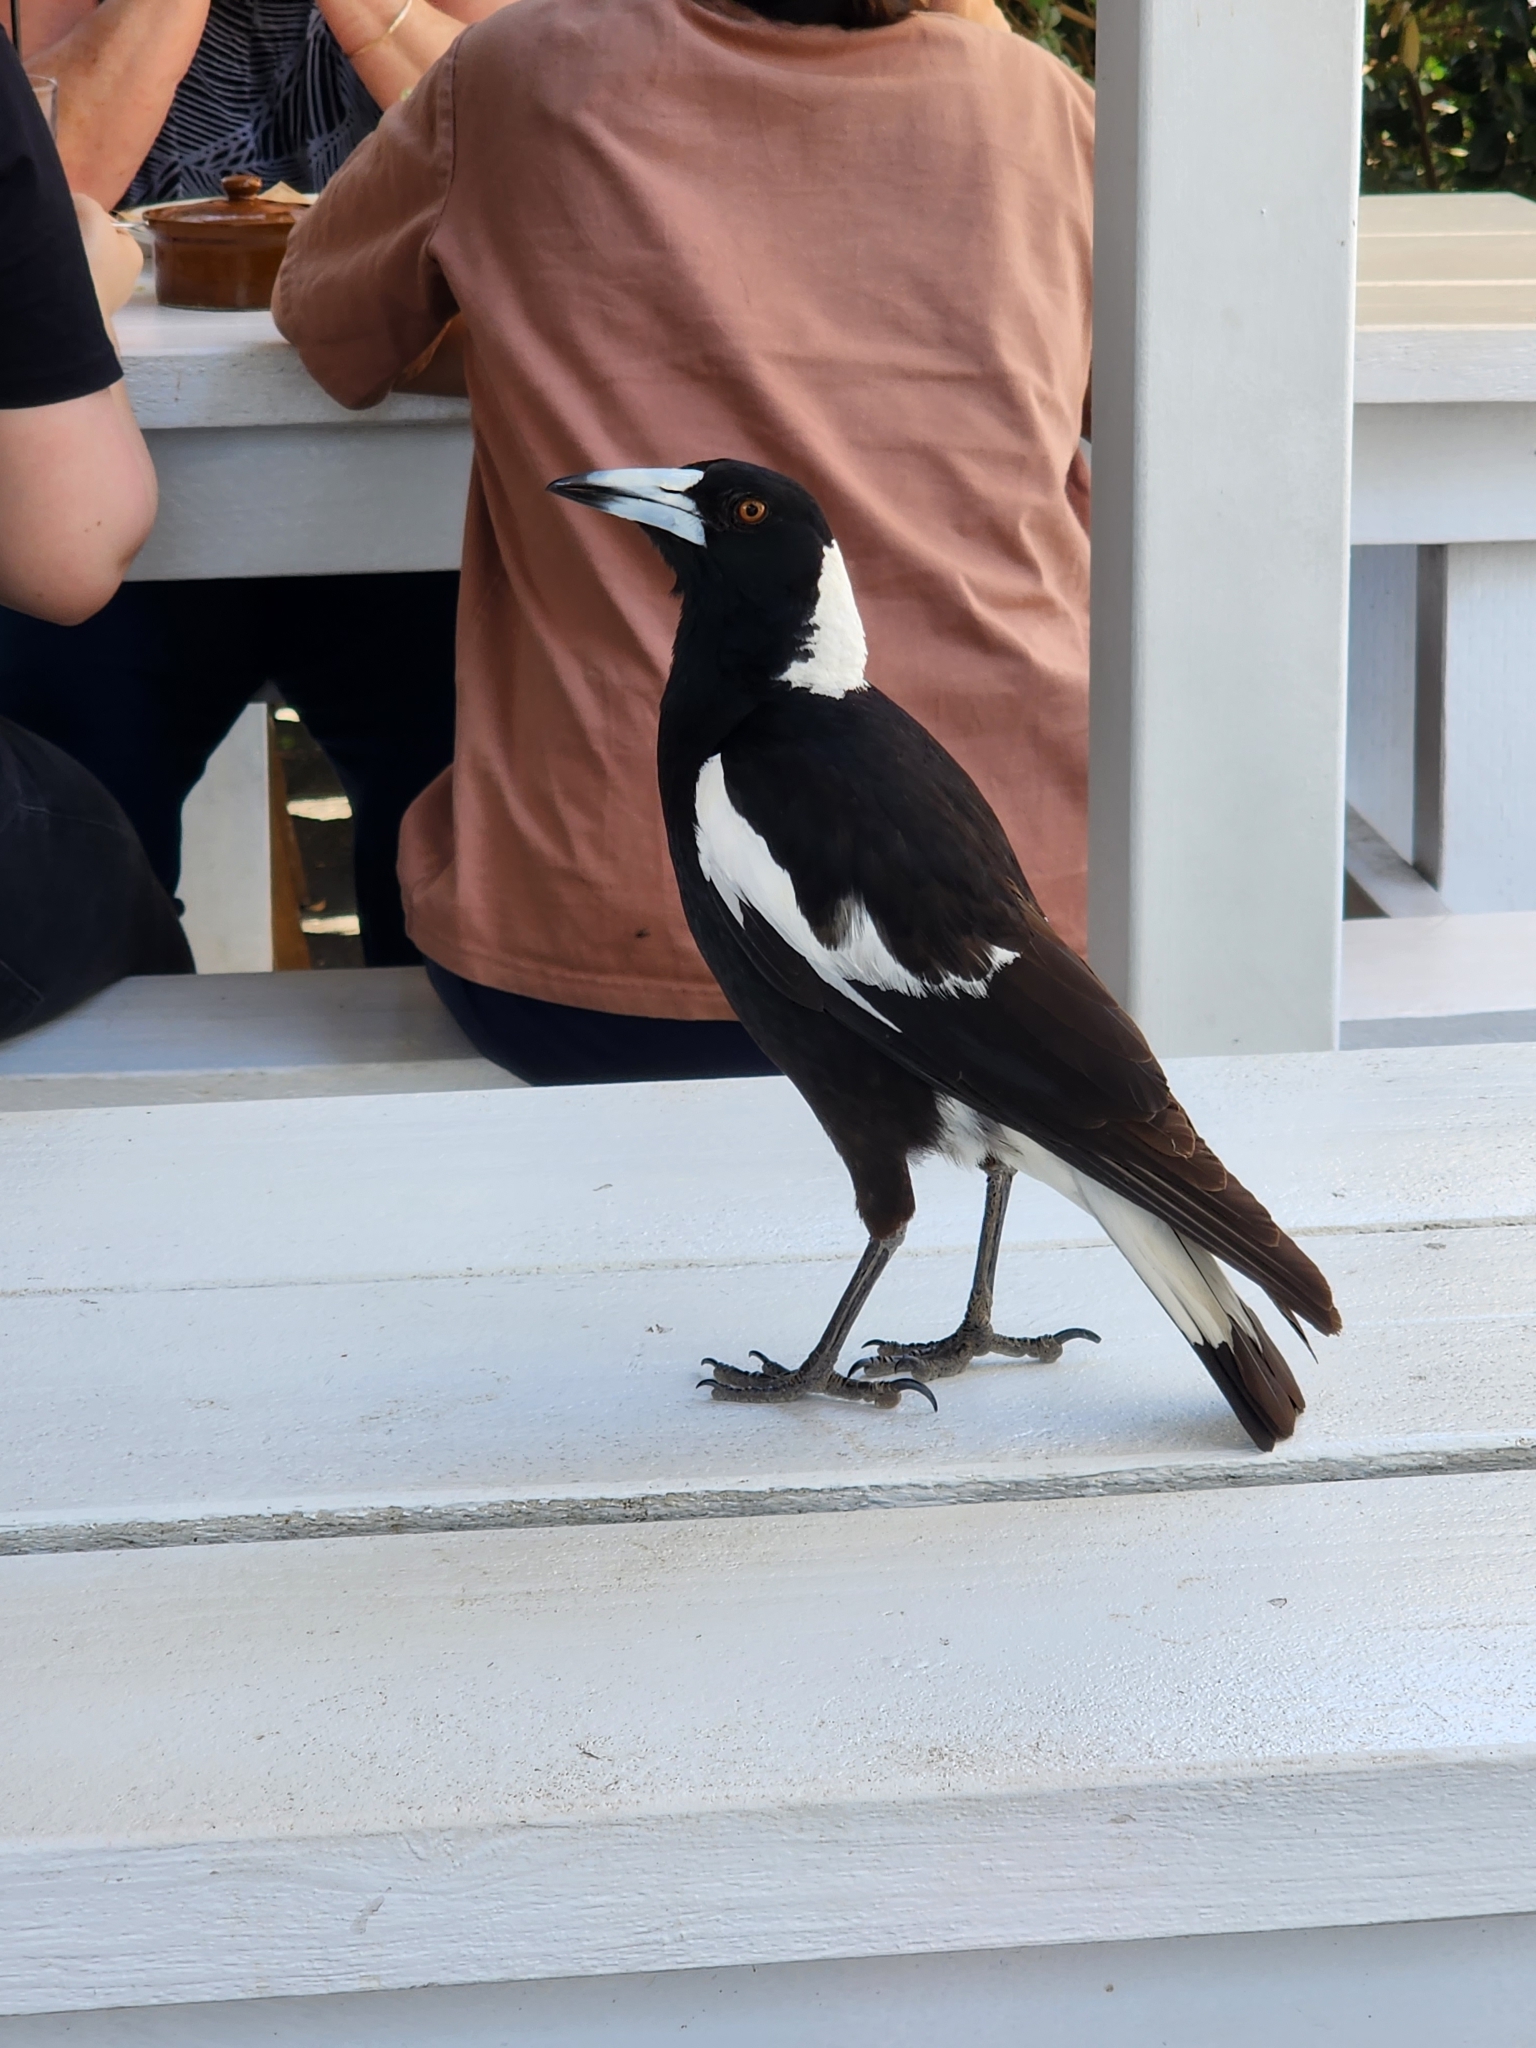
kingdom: Animalia
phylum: Chordata
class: Aves
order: Passeriformes
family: Cracticidae
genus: Gymnorhina
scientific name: Gymnorhina tibicen
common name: Australian magpie
